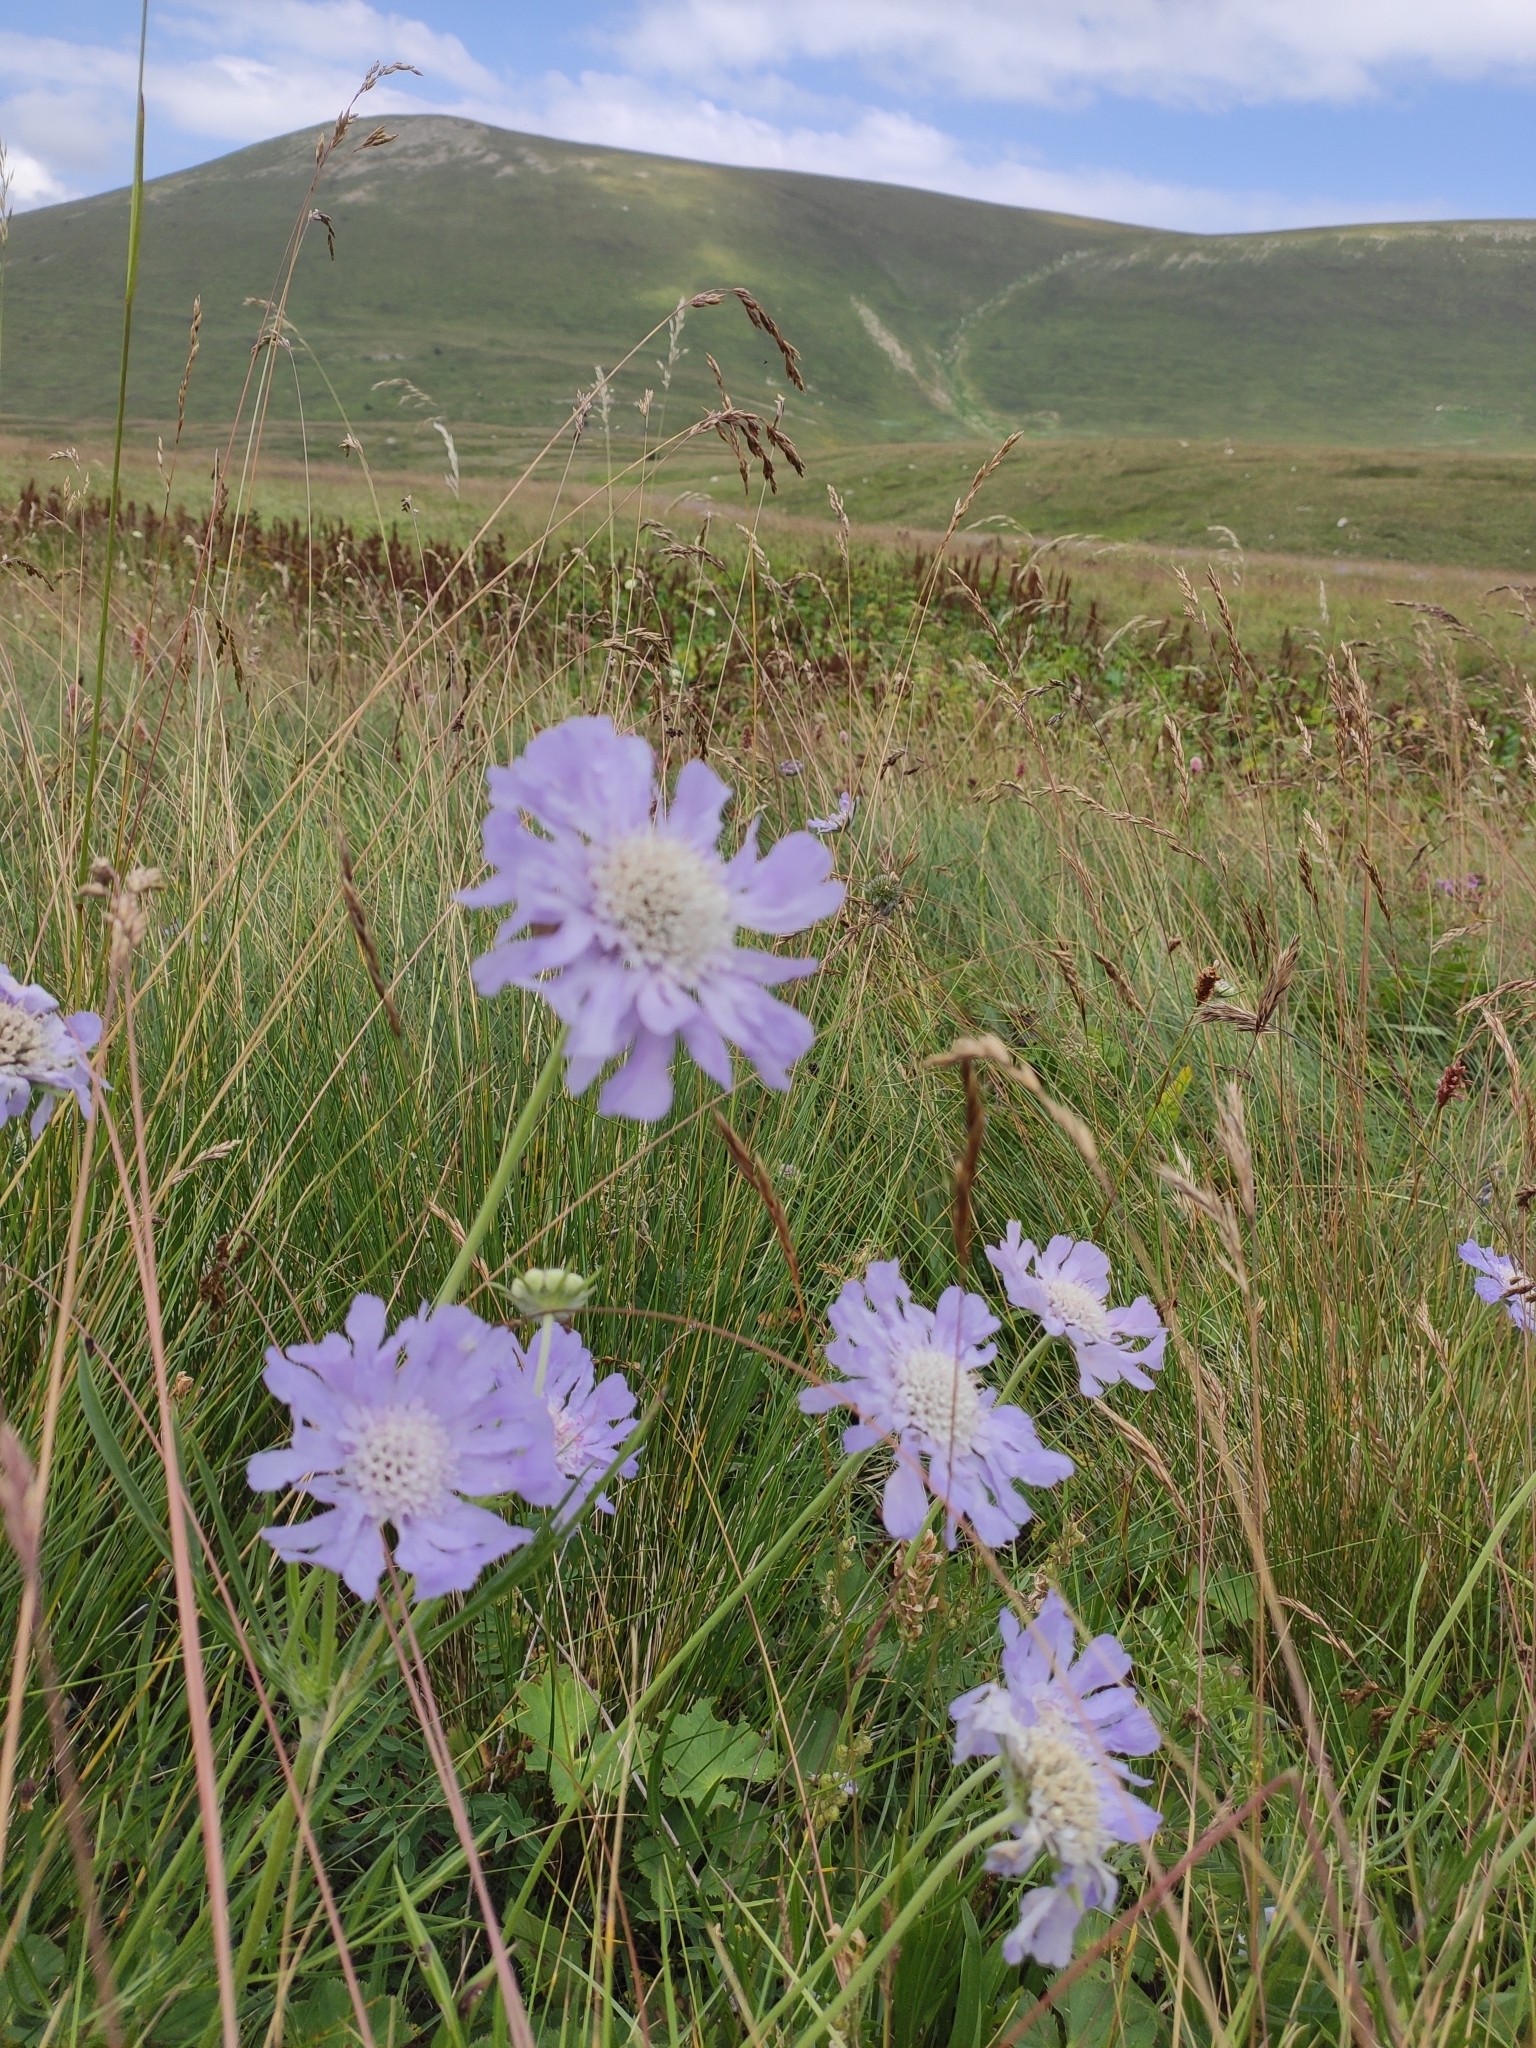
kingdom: Plantae
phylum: Tracheophyta
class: Magnoliopsida
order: Dipsacales
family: Caprifoliaceae
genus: Lomelosia
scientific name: Lomelosia caucasica
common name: Pincushion-flower
